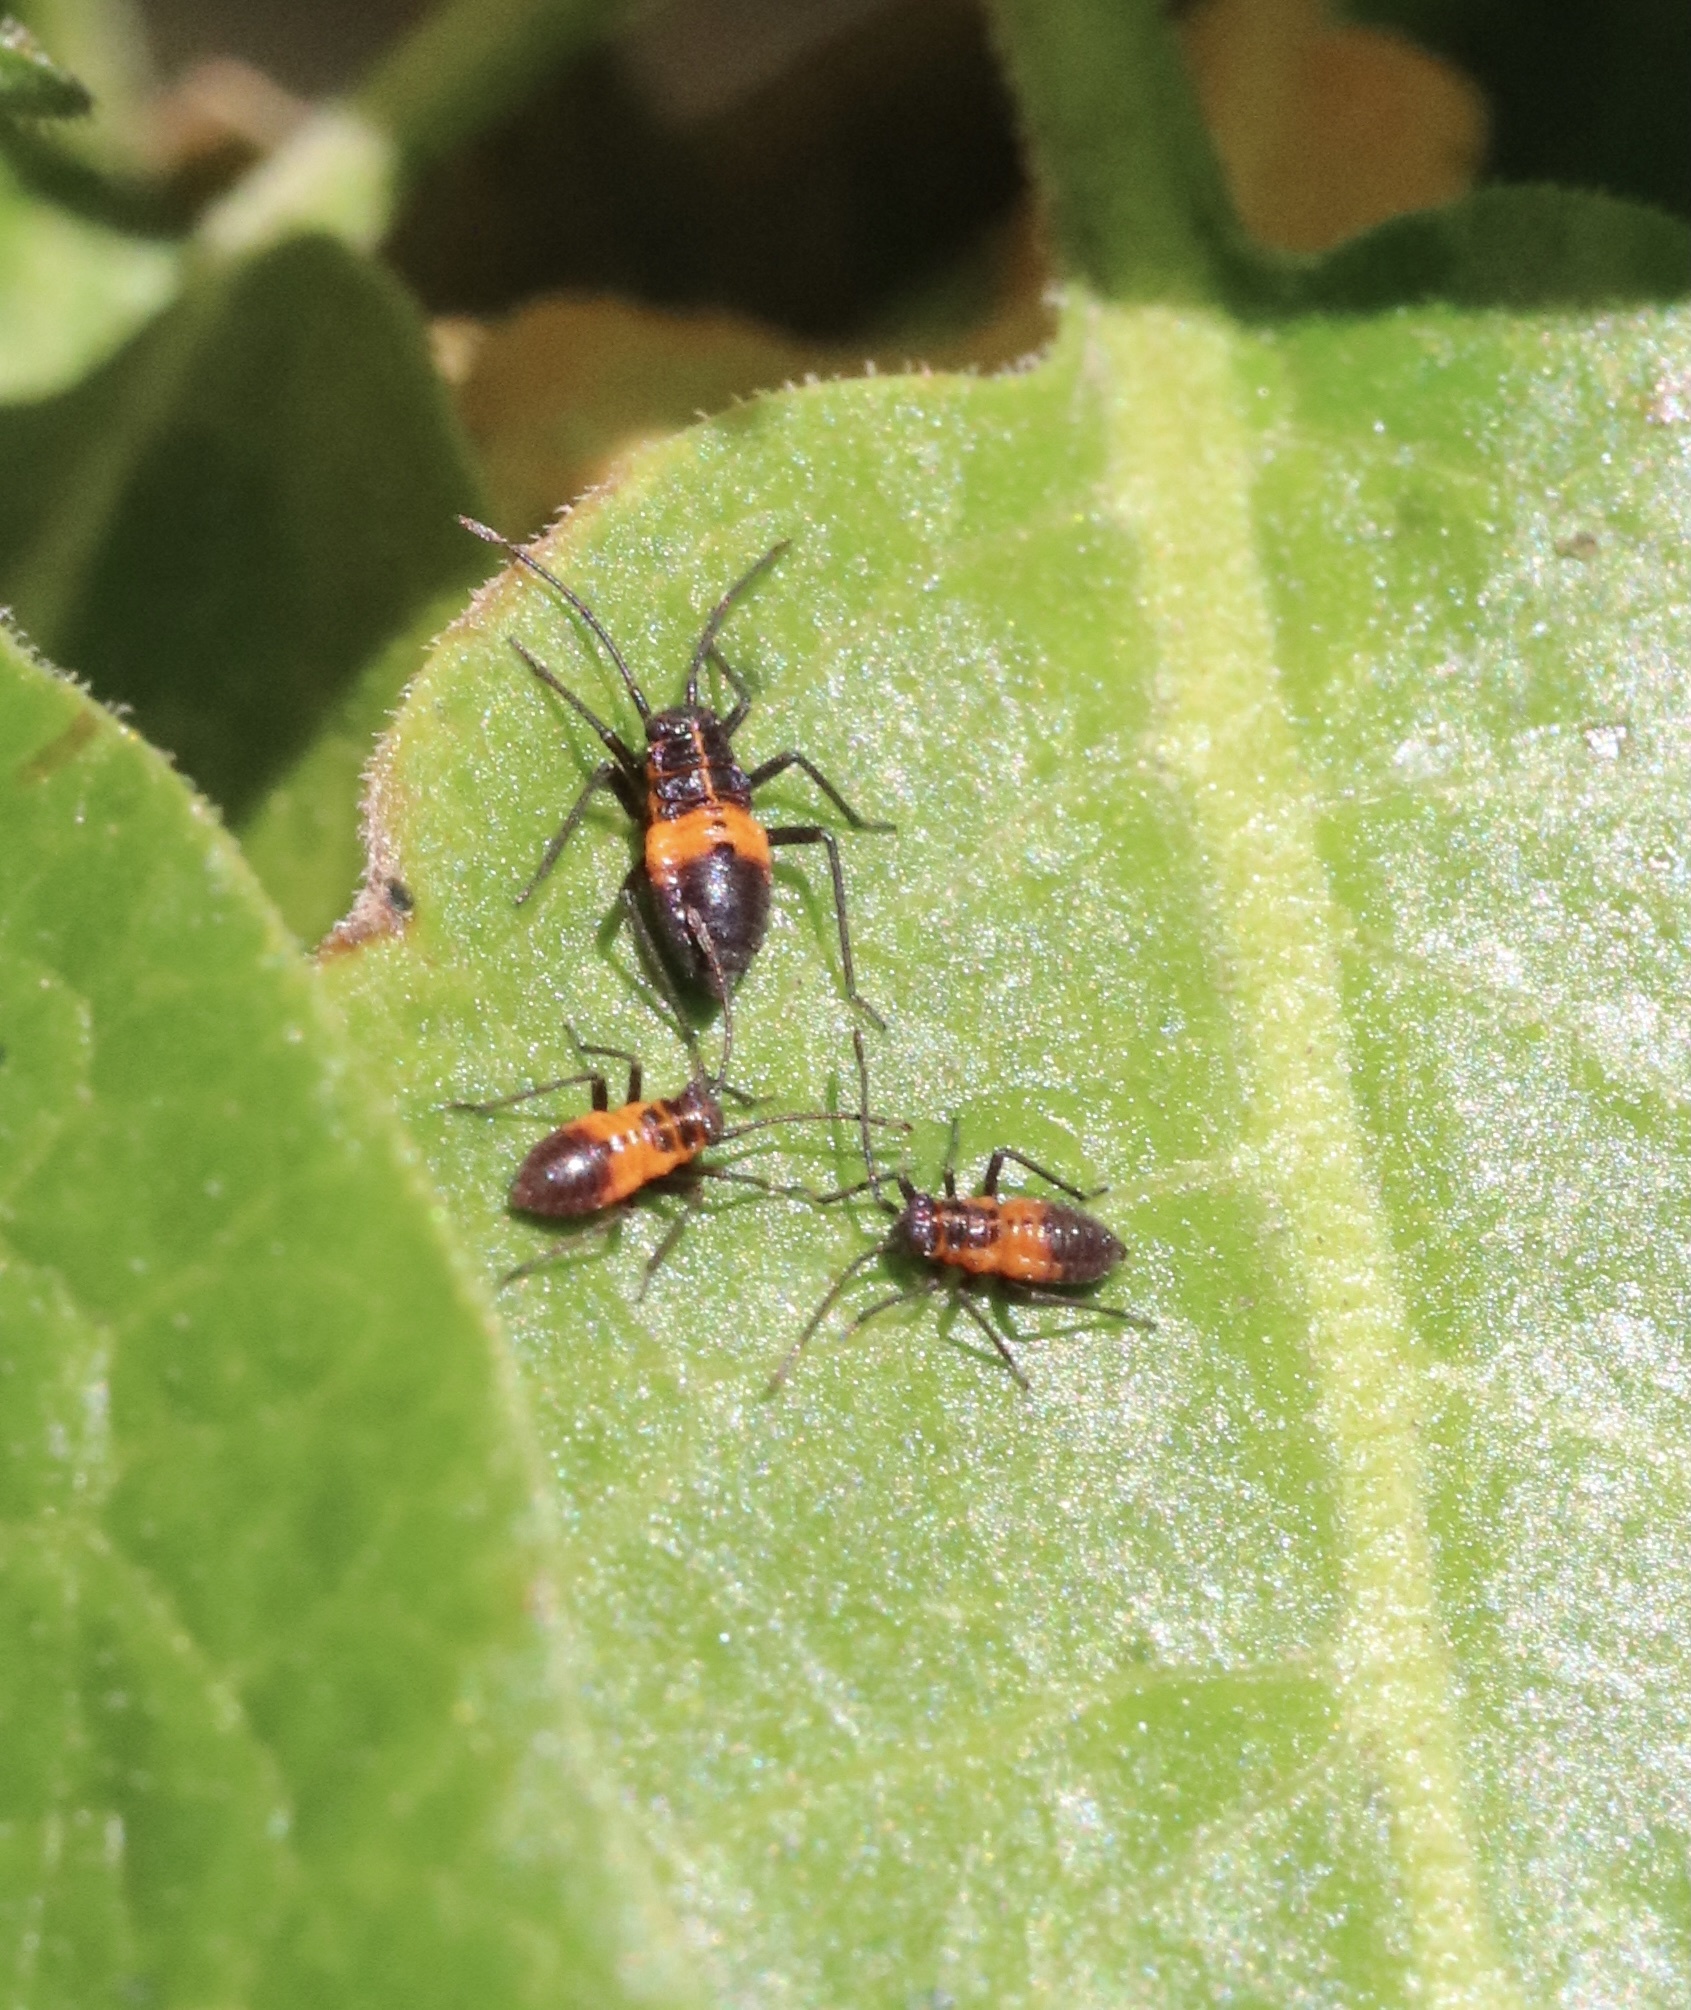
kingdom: Animalia
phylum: Arthropoda
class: Insecta
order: Hemiptera
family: Miridae
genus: Eurylomata
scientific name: Eurylomata picturata
